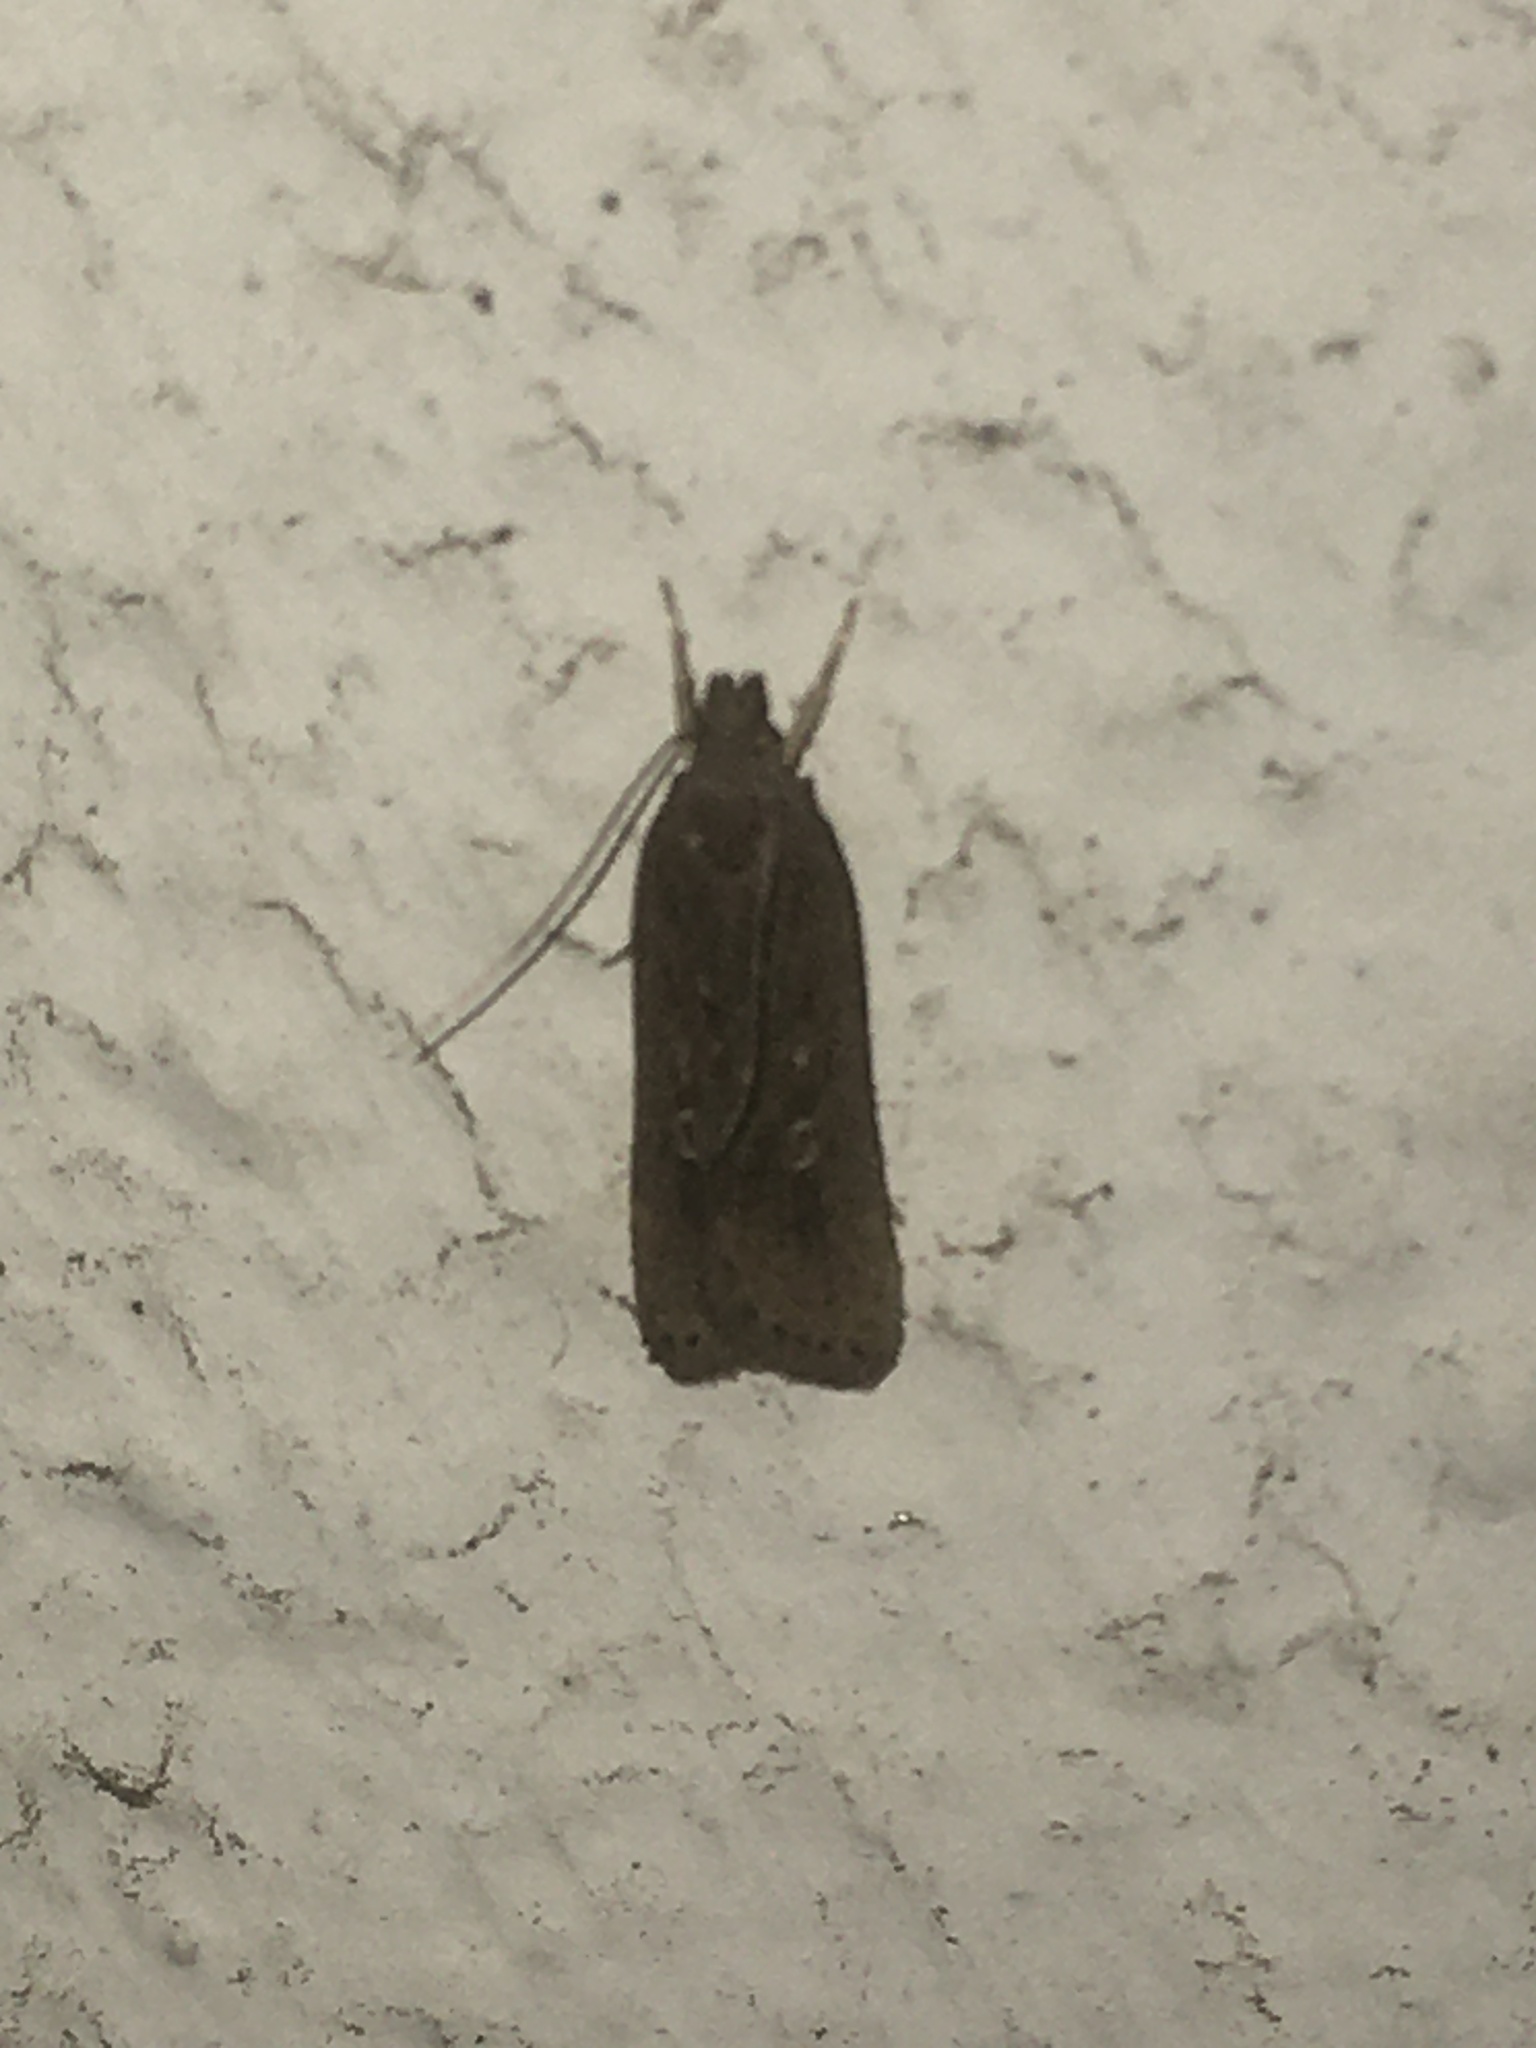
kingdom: Animalia
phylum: Arthropoda
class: Insecta
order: Lepidoptera
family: Gelechiidae
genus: Helcystogramma
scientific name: Helcystogramma triannulella
